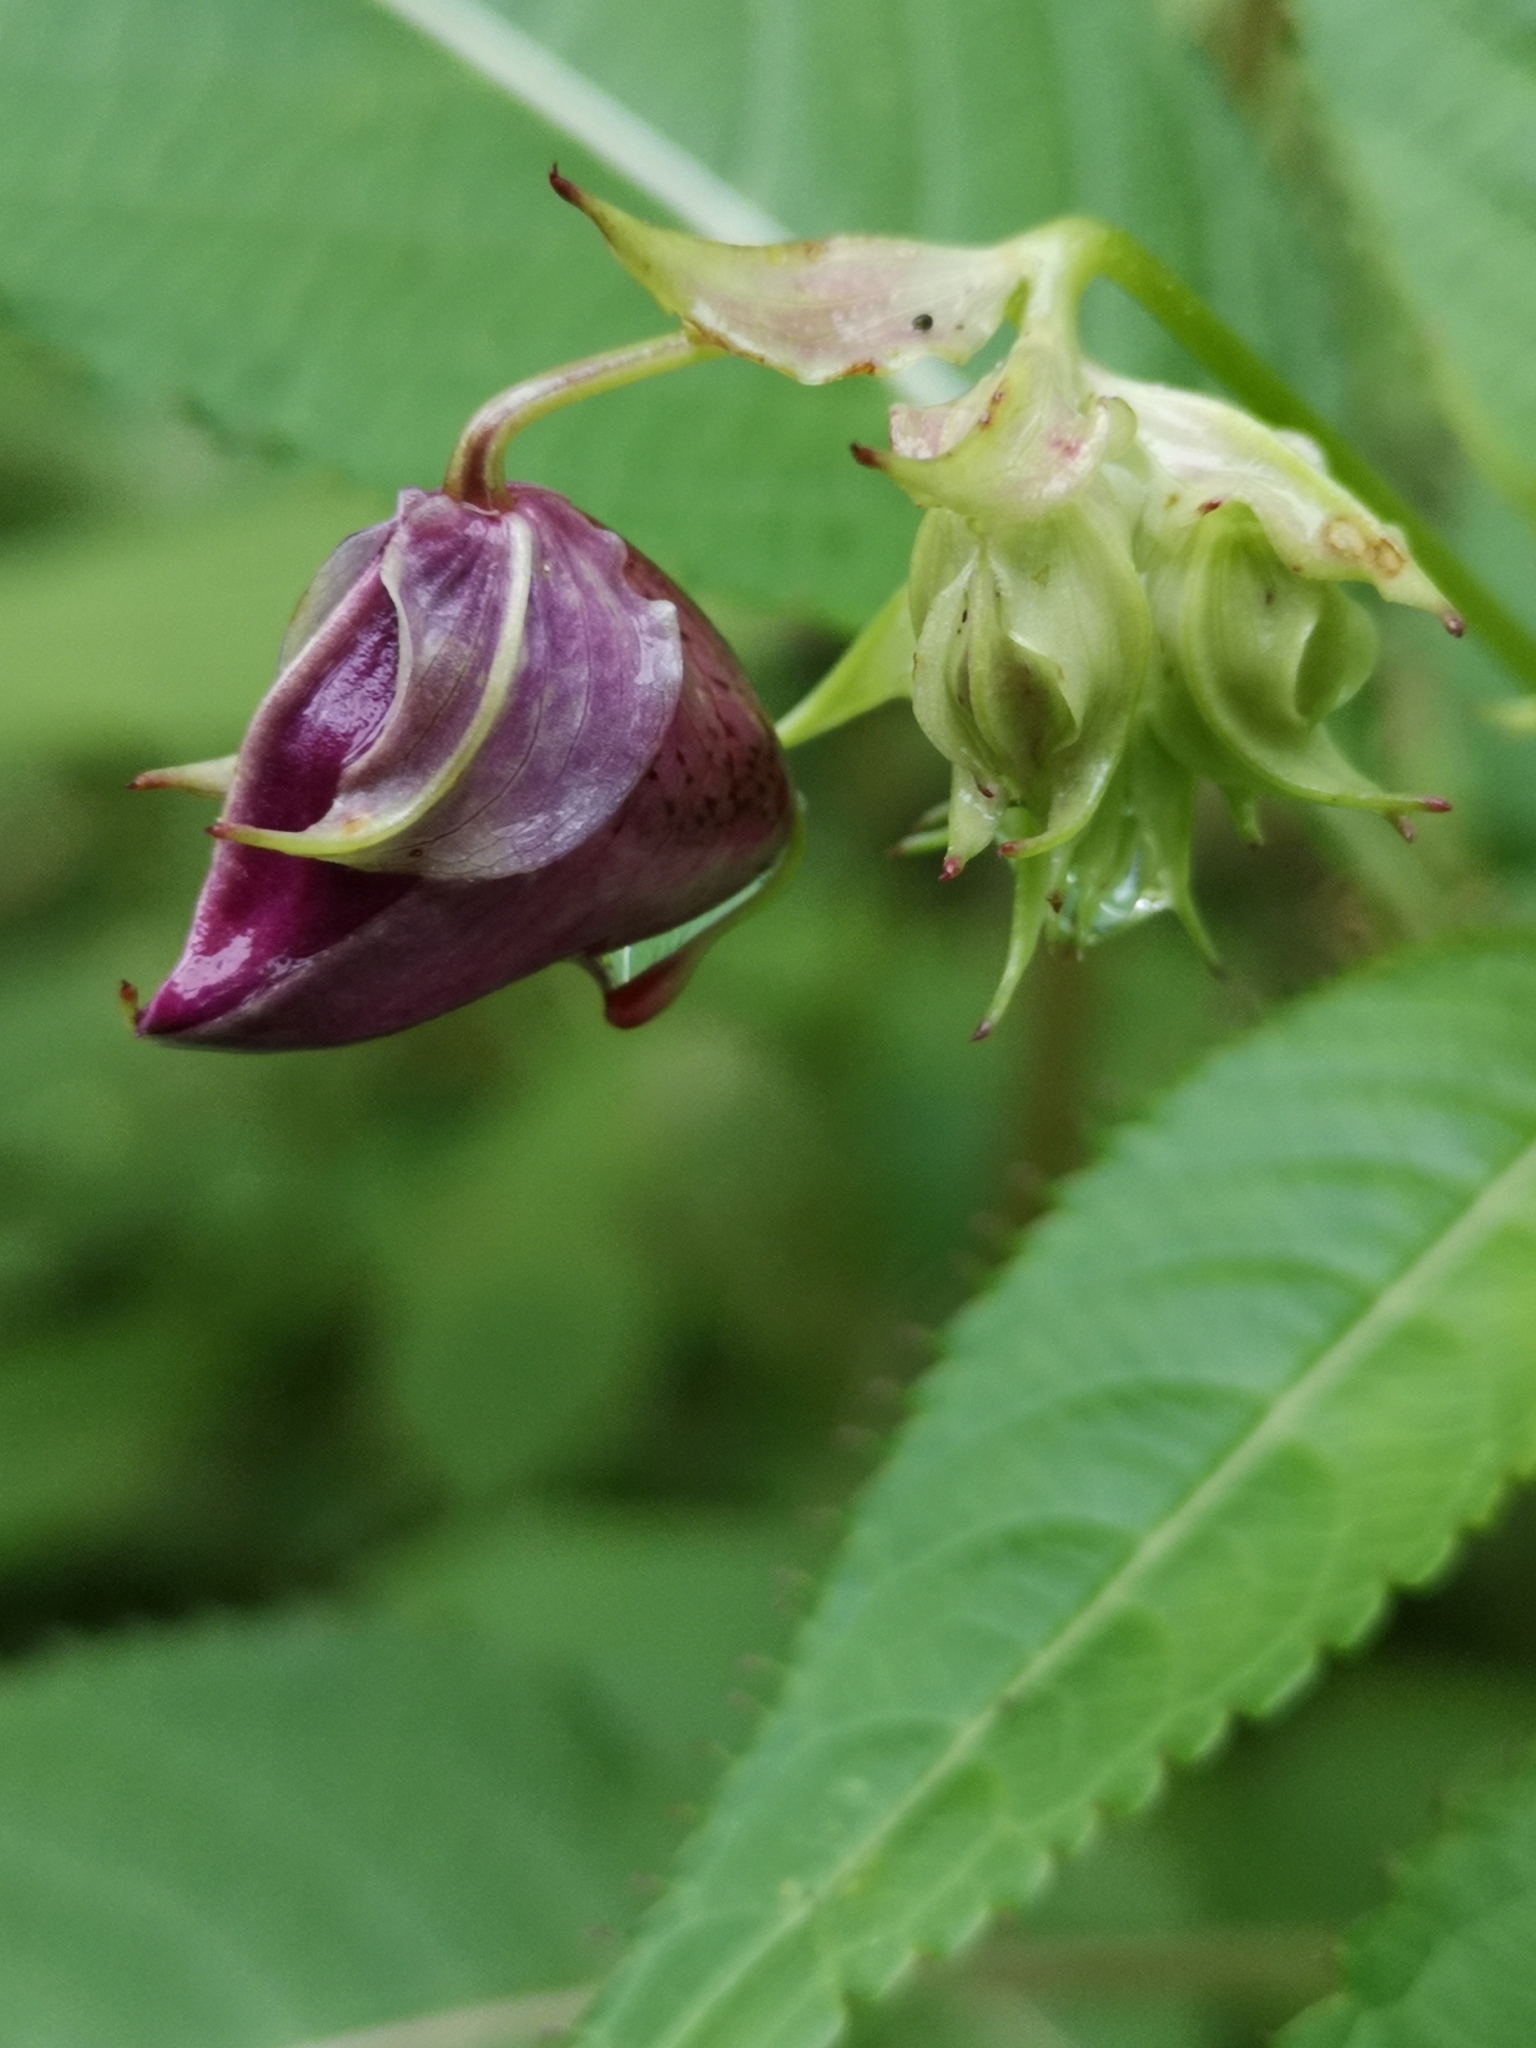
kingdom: Plantae
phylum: Tracheophyta
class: Magnoliopsida
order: Ericales
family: Balsaminaceae
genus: Impatiens
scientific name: Impatiens glandulifera
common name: Himalayan balsam
